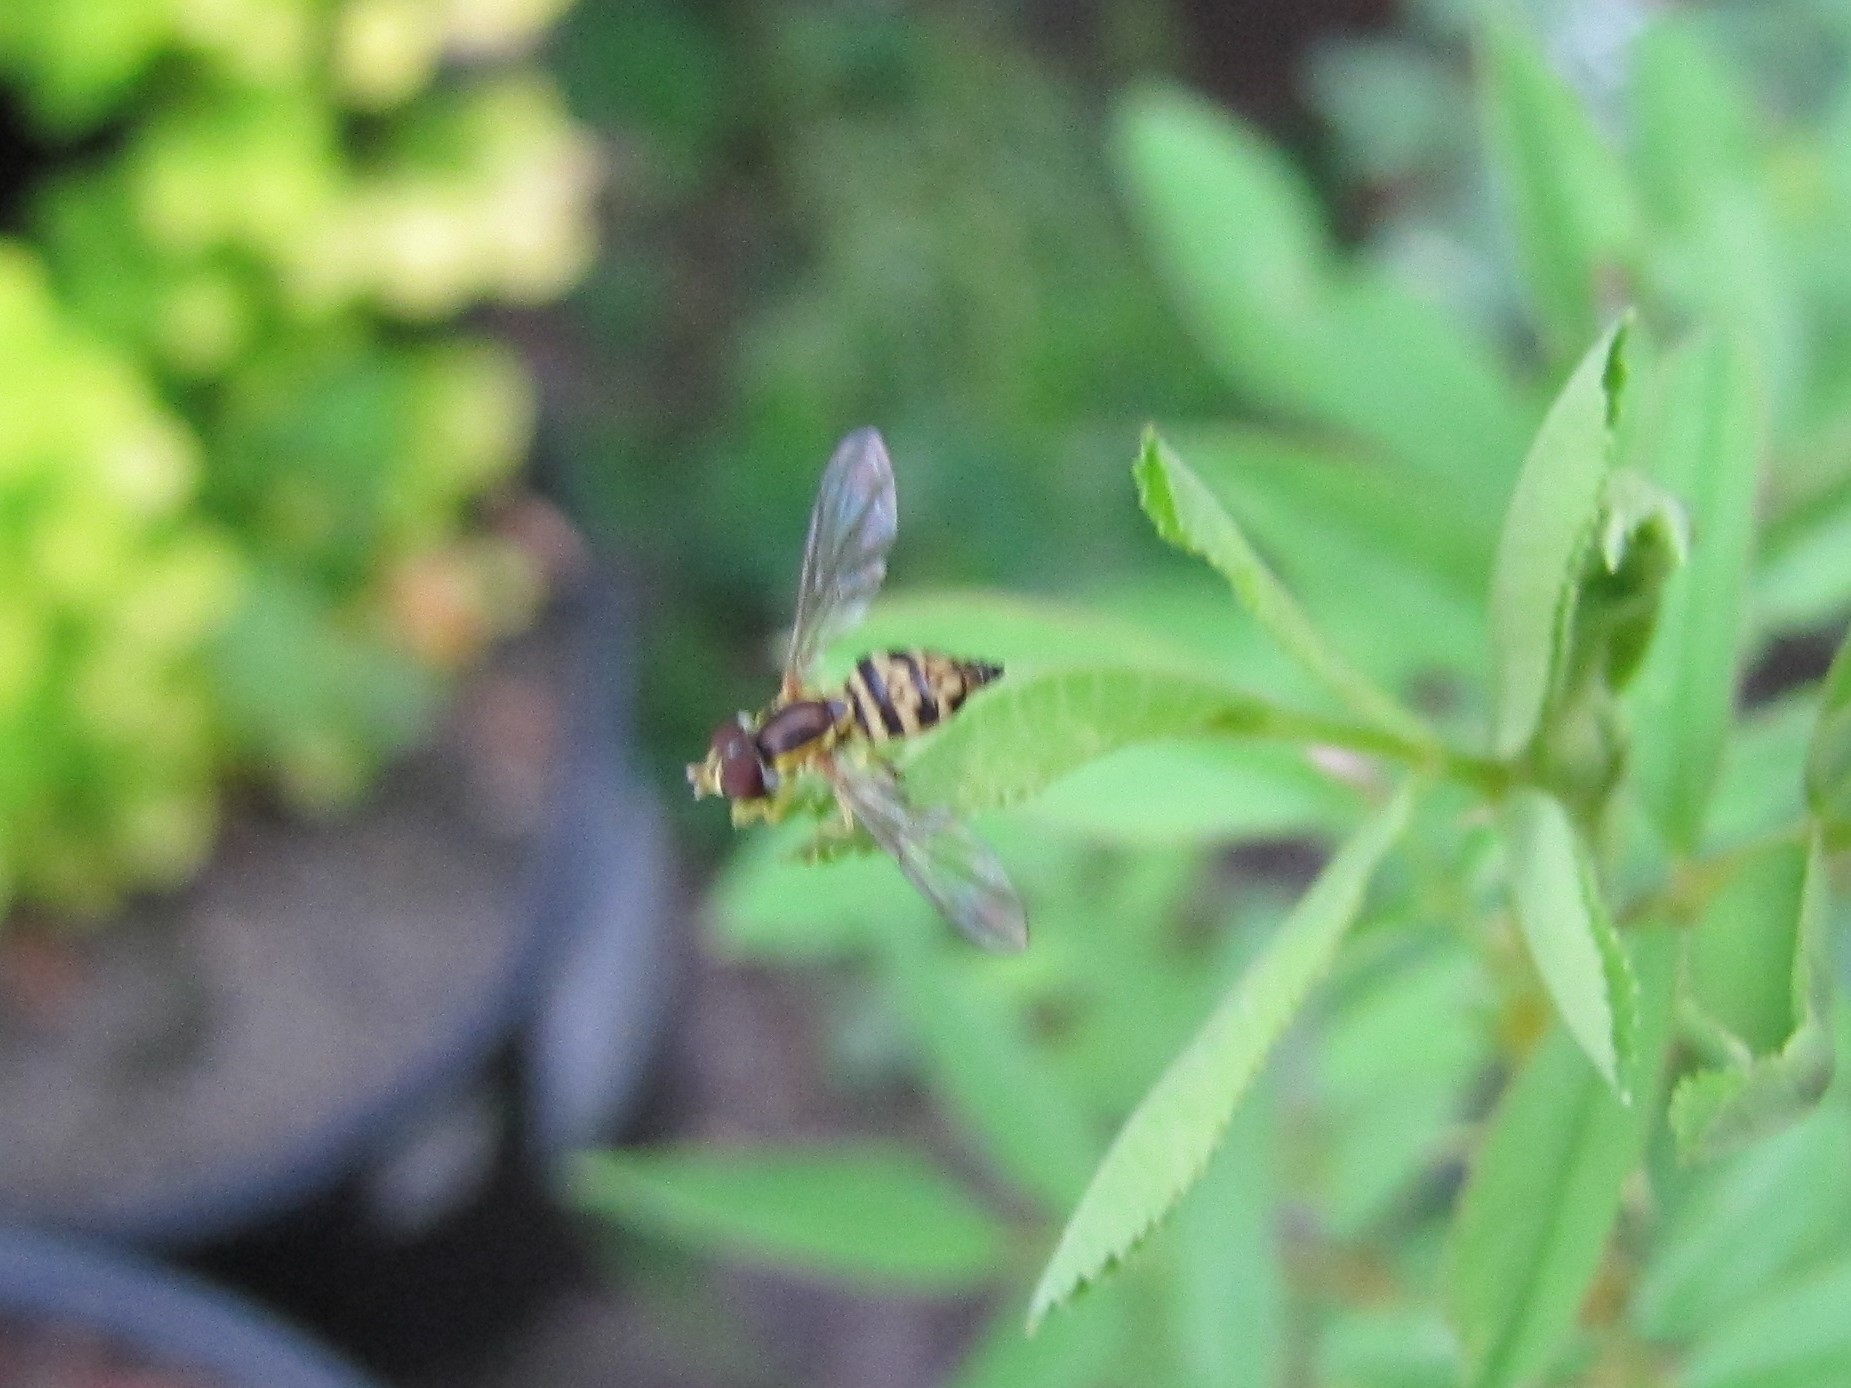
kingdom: Animalia
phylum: Arthropoda
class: Insecta
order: Diptera
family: Syrphidae
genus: Toxomerus
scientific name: Toxomerus geminatus
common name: Eastern calligrapher
